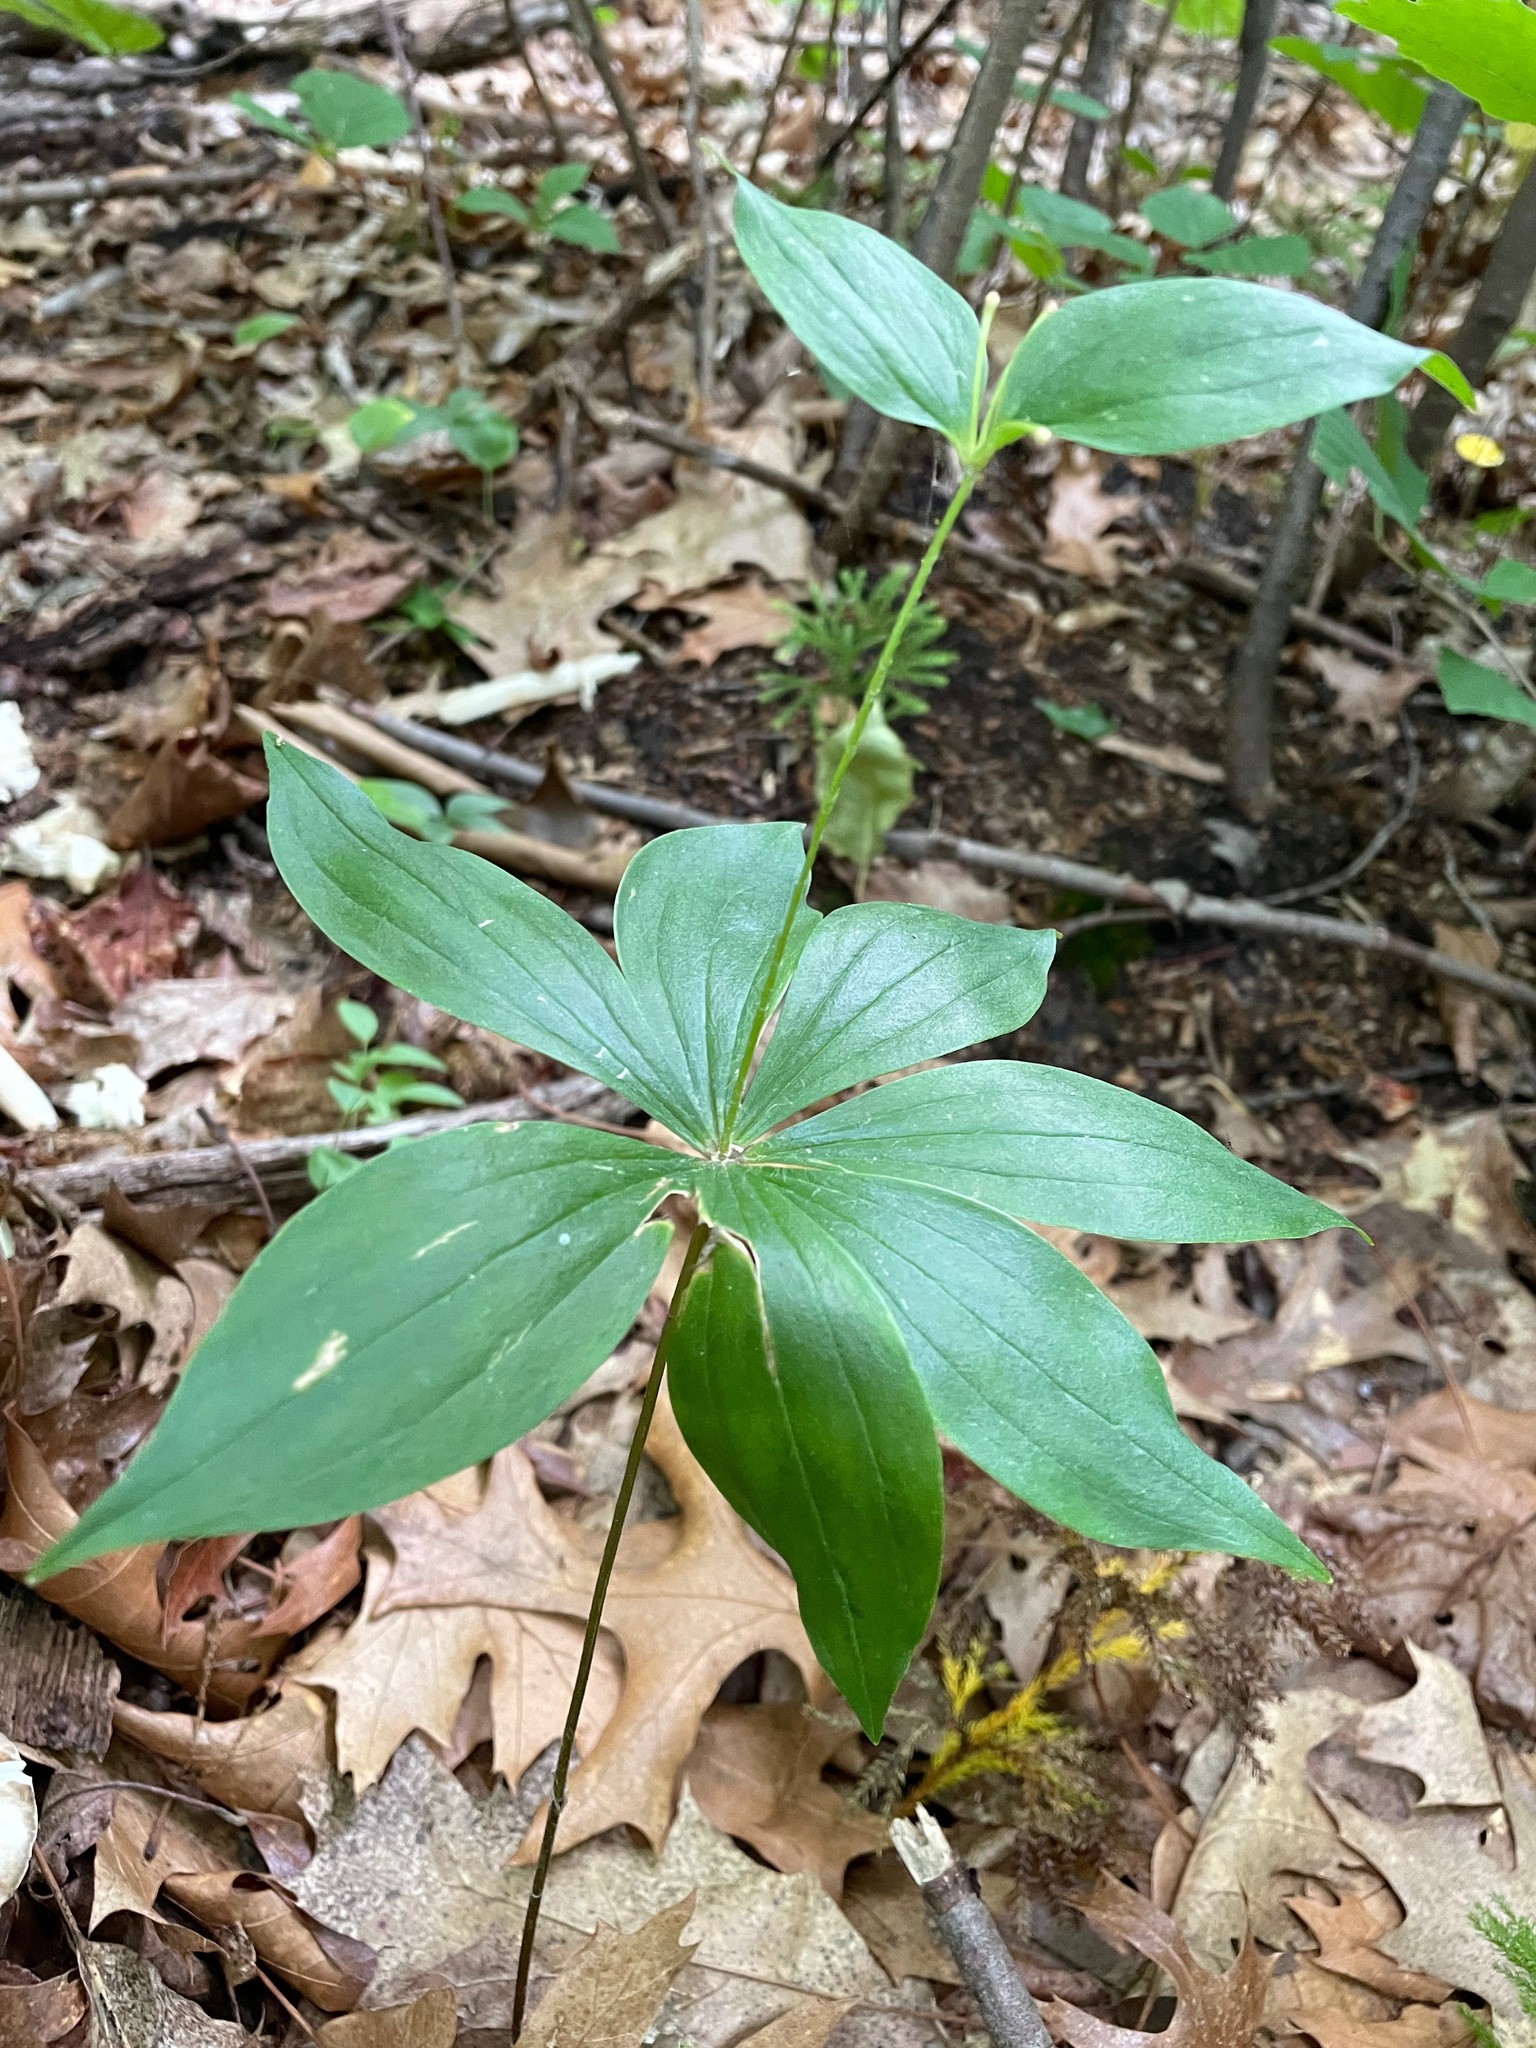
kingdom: Plantae
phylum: Tracheophyta
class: Liliopsida
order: Liliales
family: Liliaceae
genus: Medeola
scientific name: Medeola virginiana
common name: Indian cucumber-root
